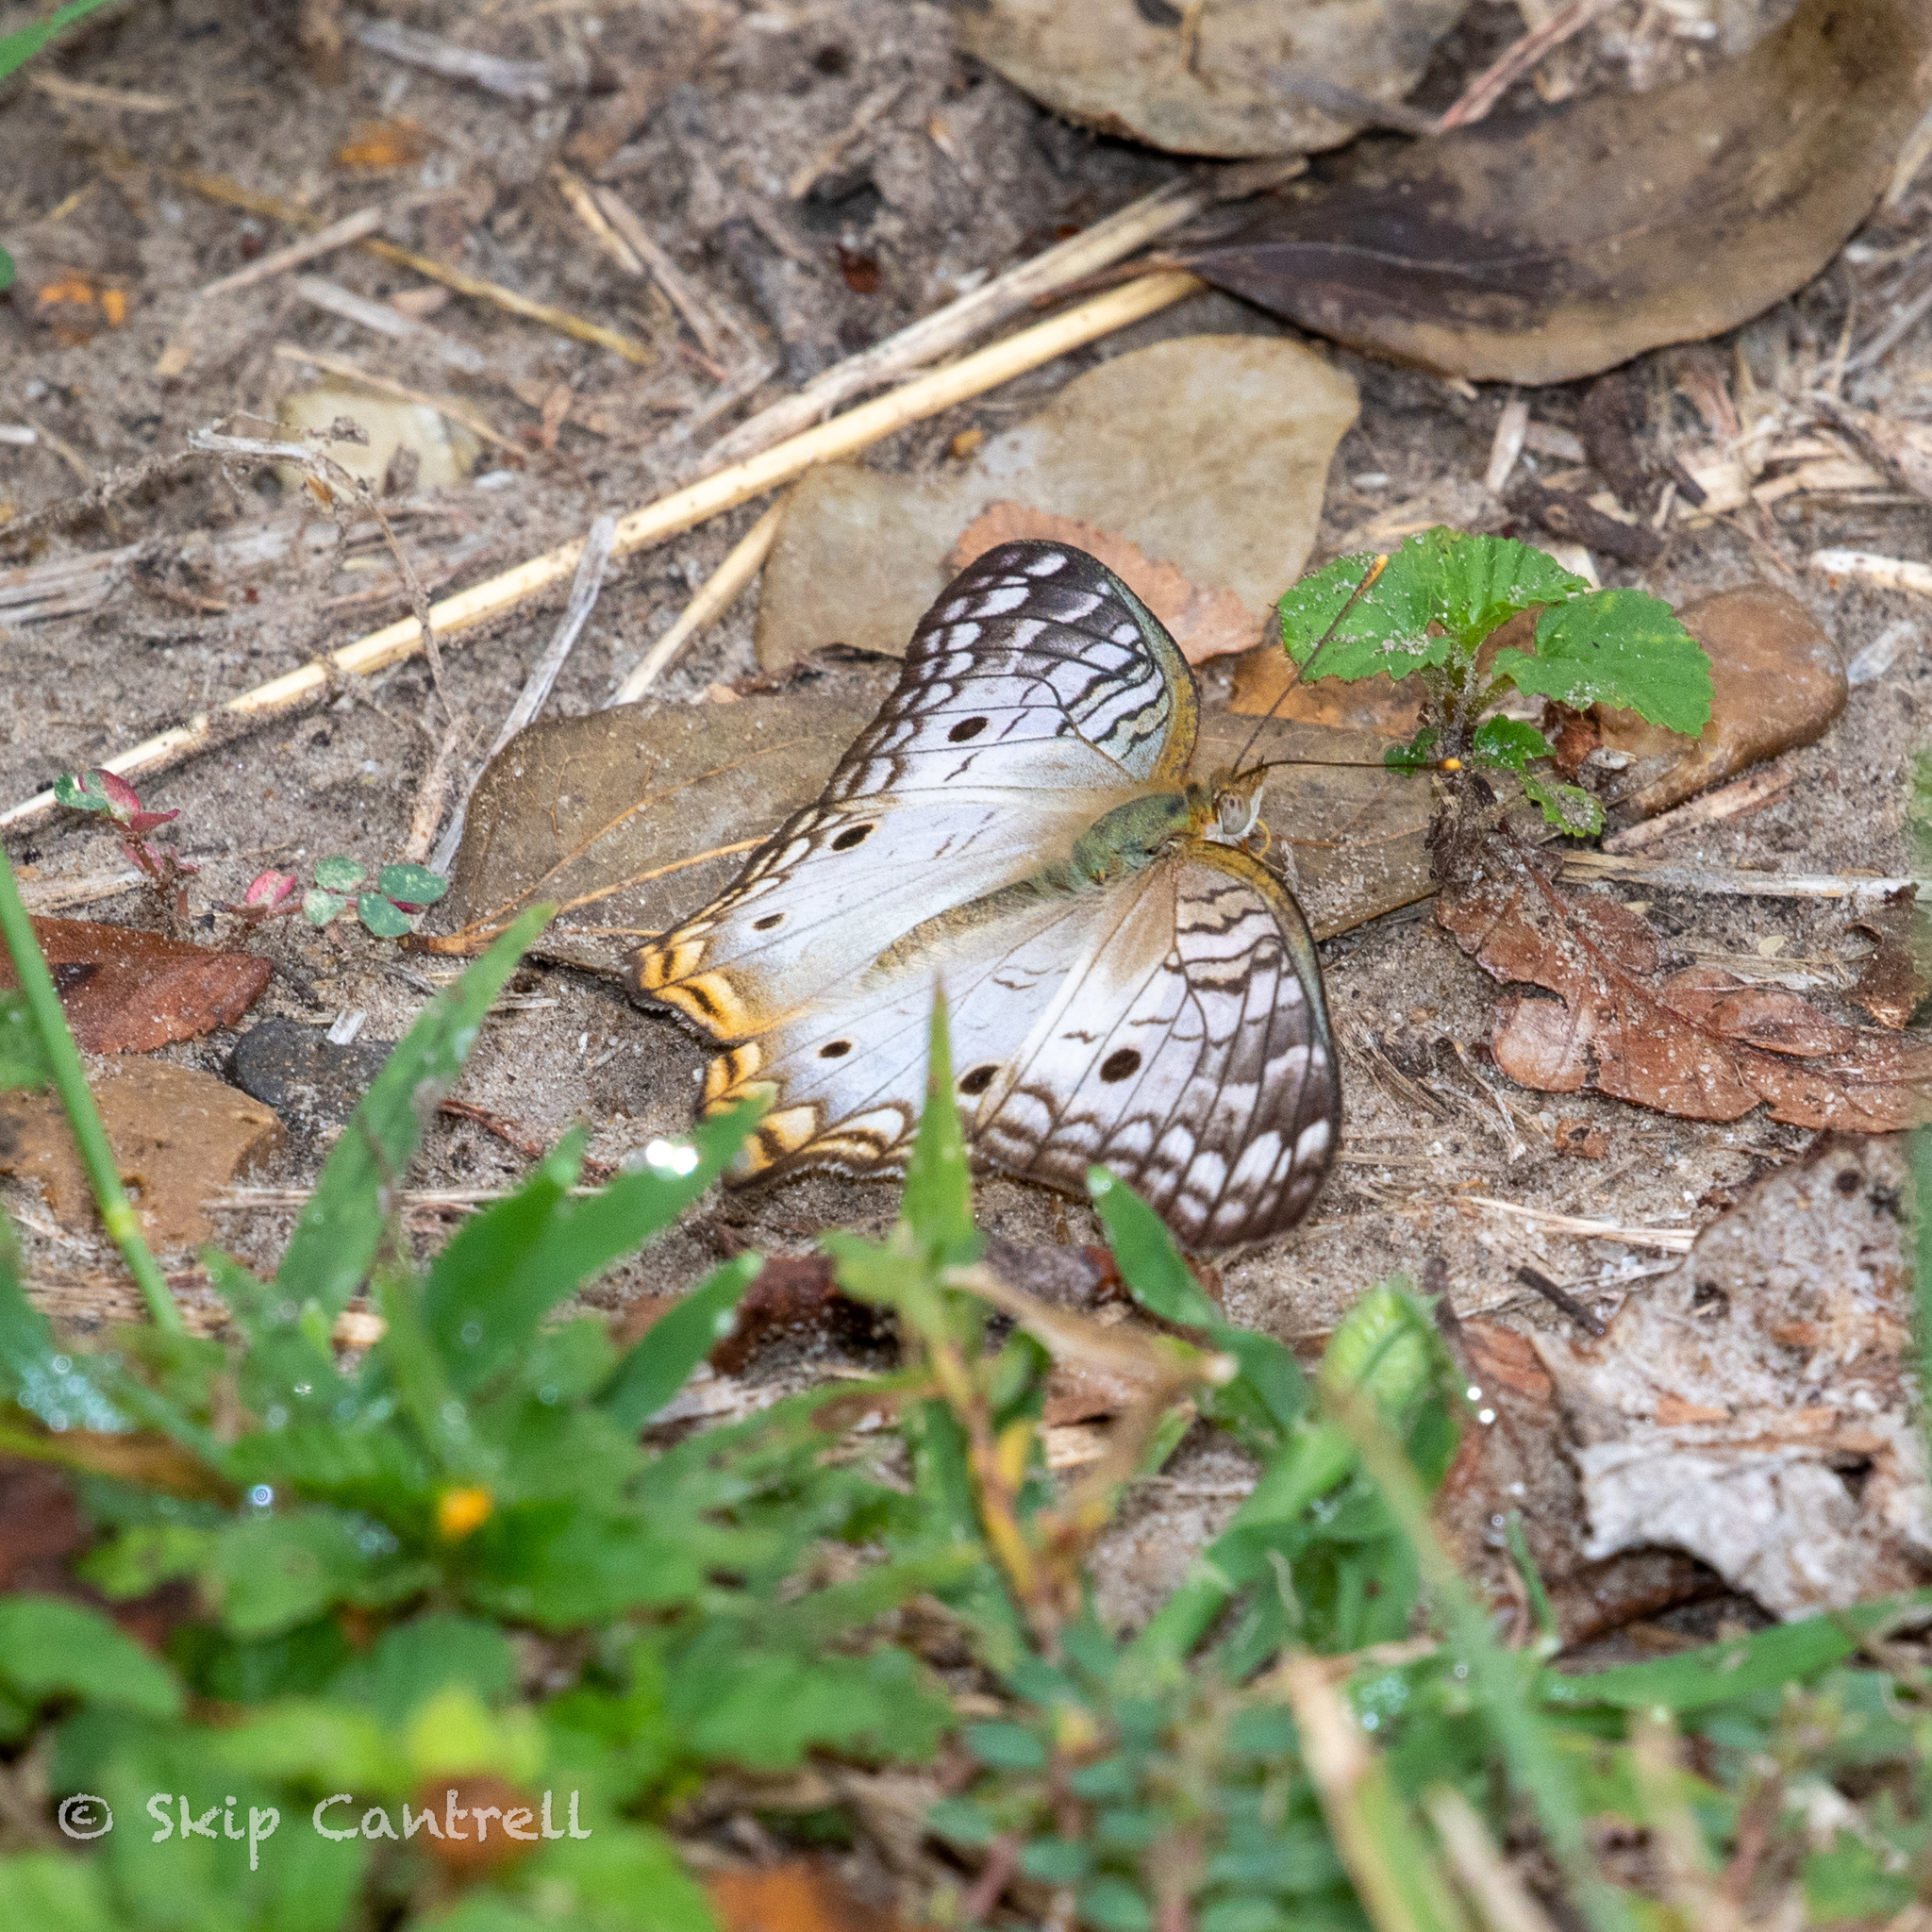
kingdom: Animalia
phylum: Arthropoda
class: Insecta
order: Lepidoptera
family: Nymphalidae
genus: Anartia
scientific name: Anartia jatrophae
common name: White peacock
